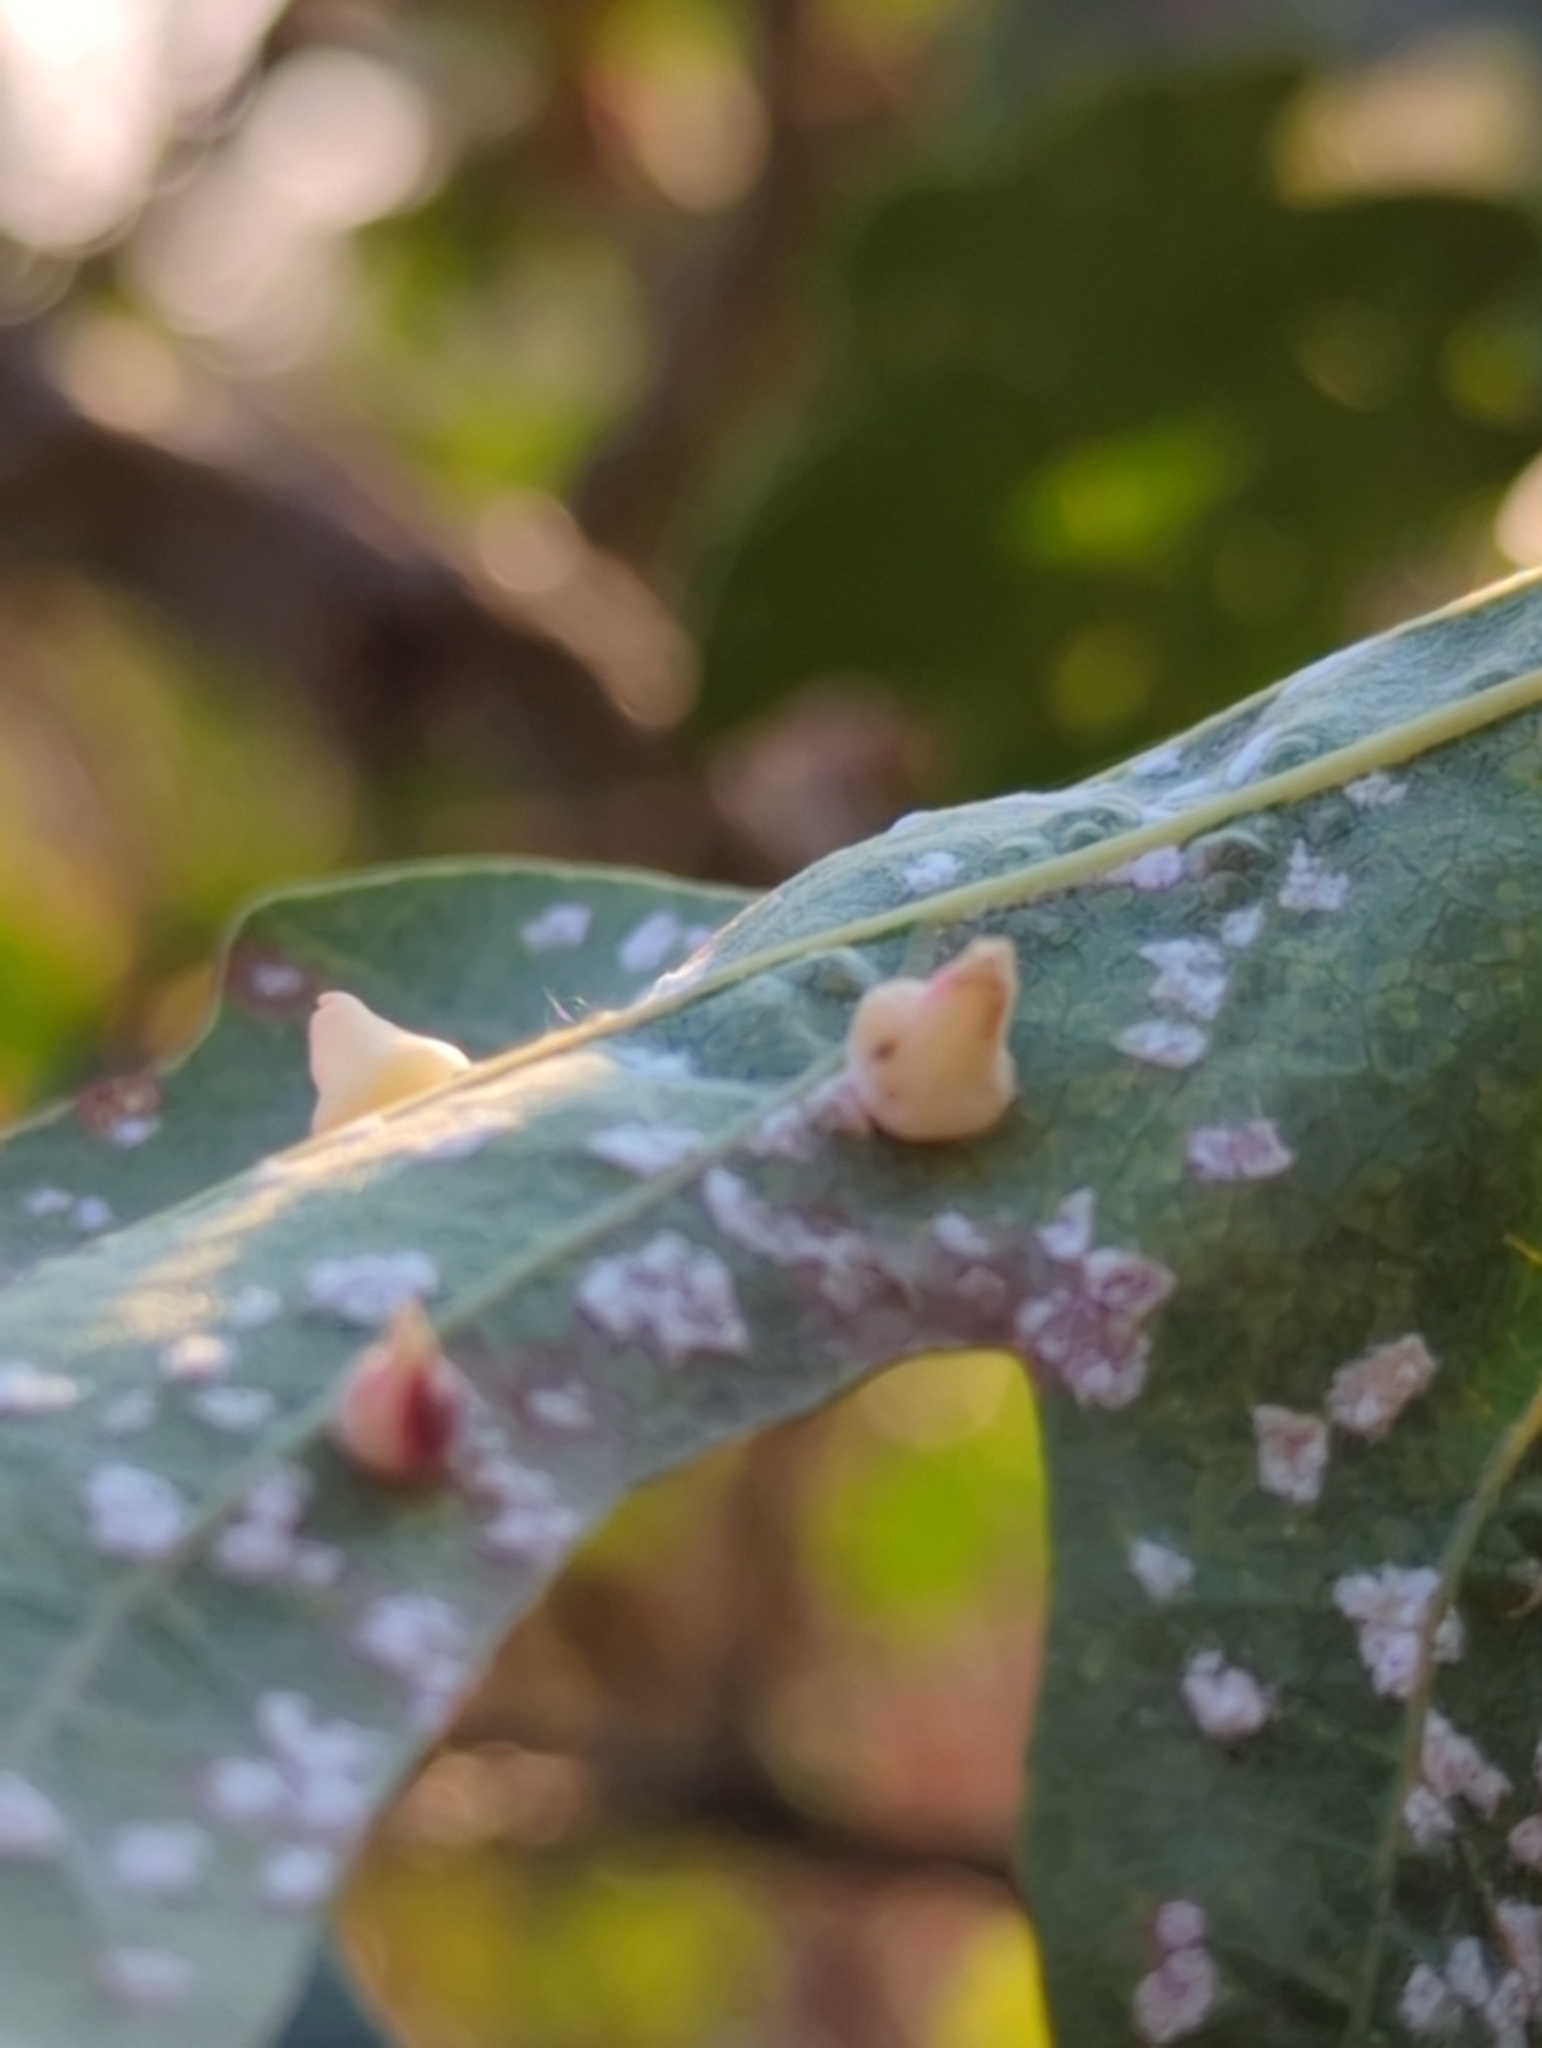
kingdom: Animalia
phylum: Arthropoda
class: Insecta
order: Hymenoptera
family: Cynipidae
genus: Andricus
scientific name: Andricus
